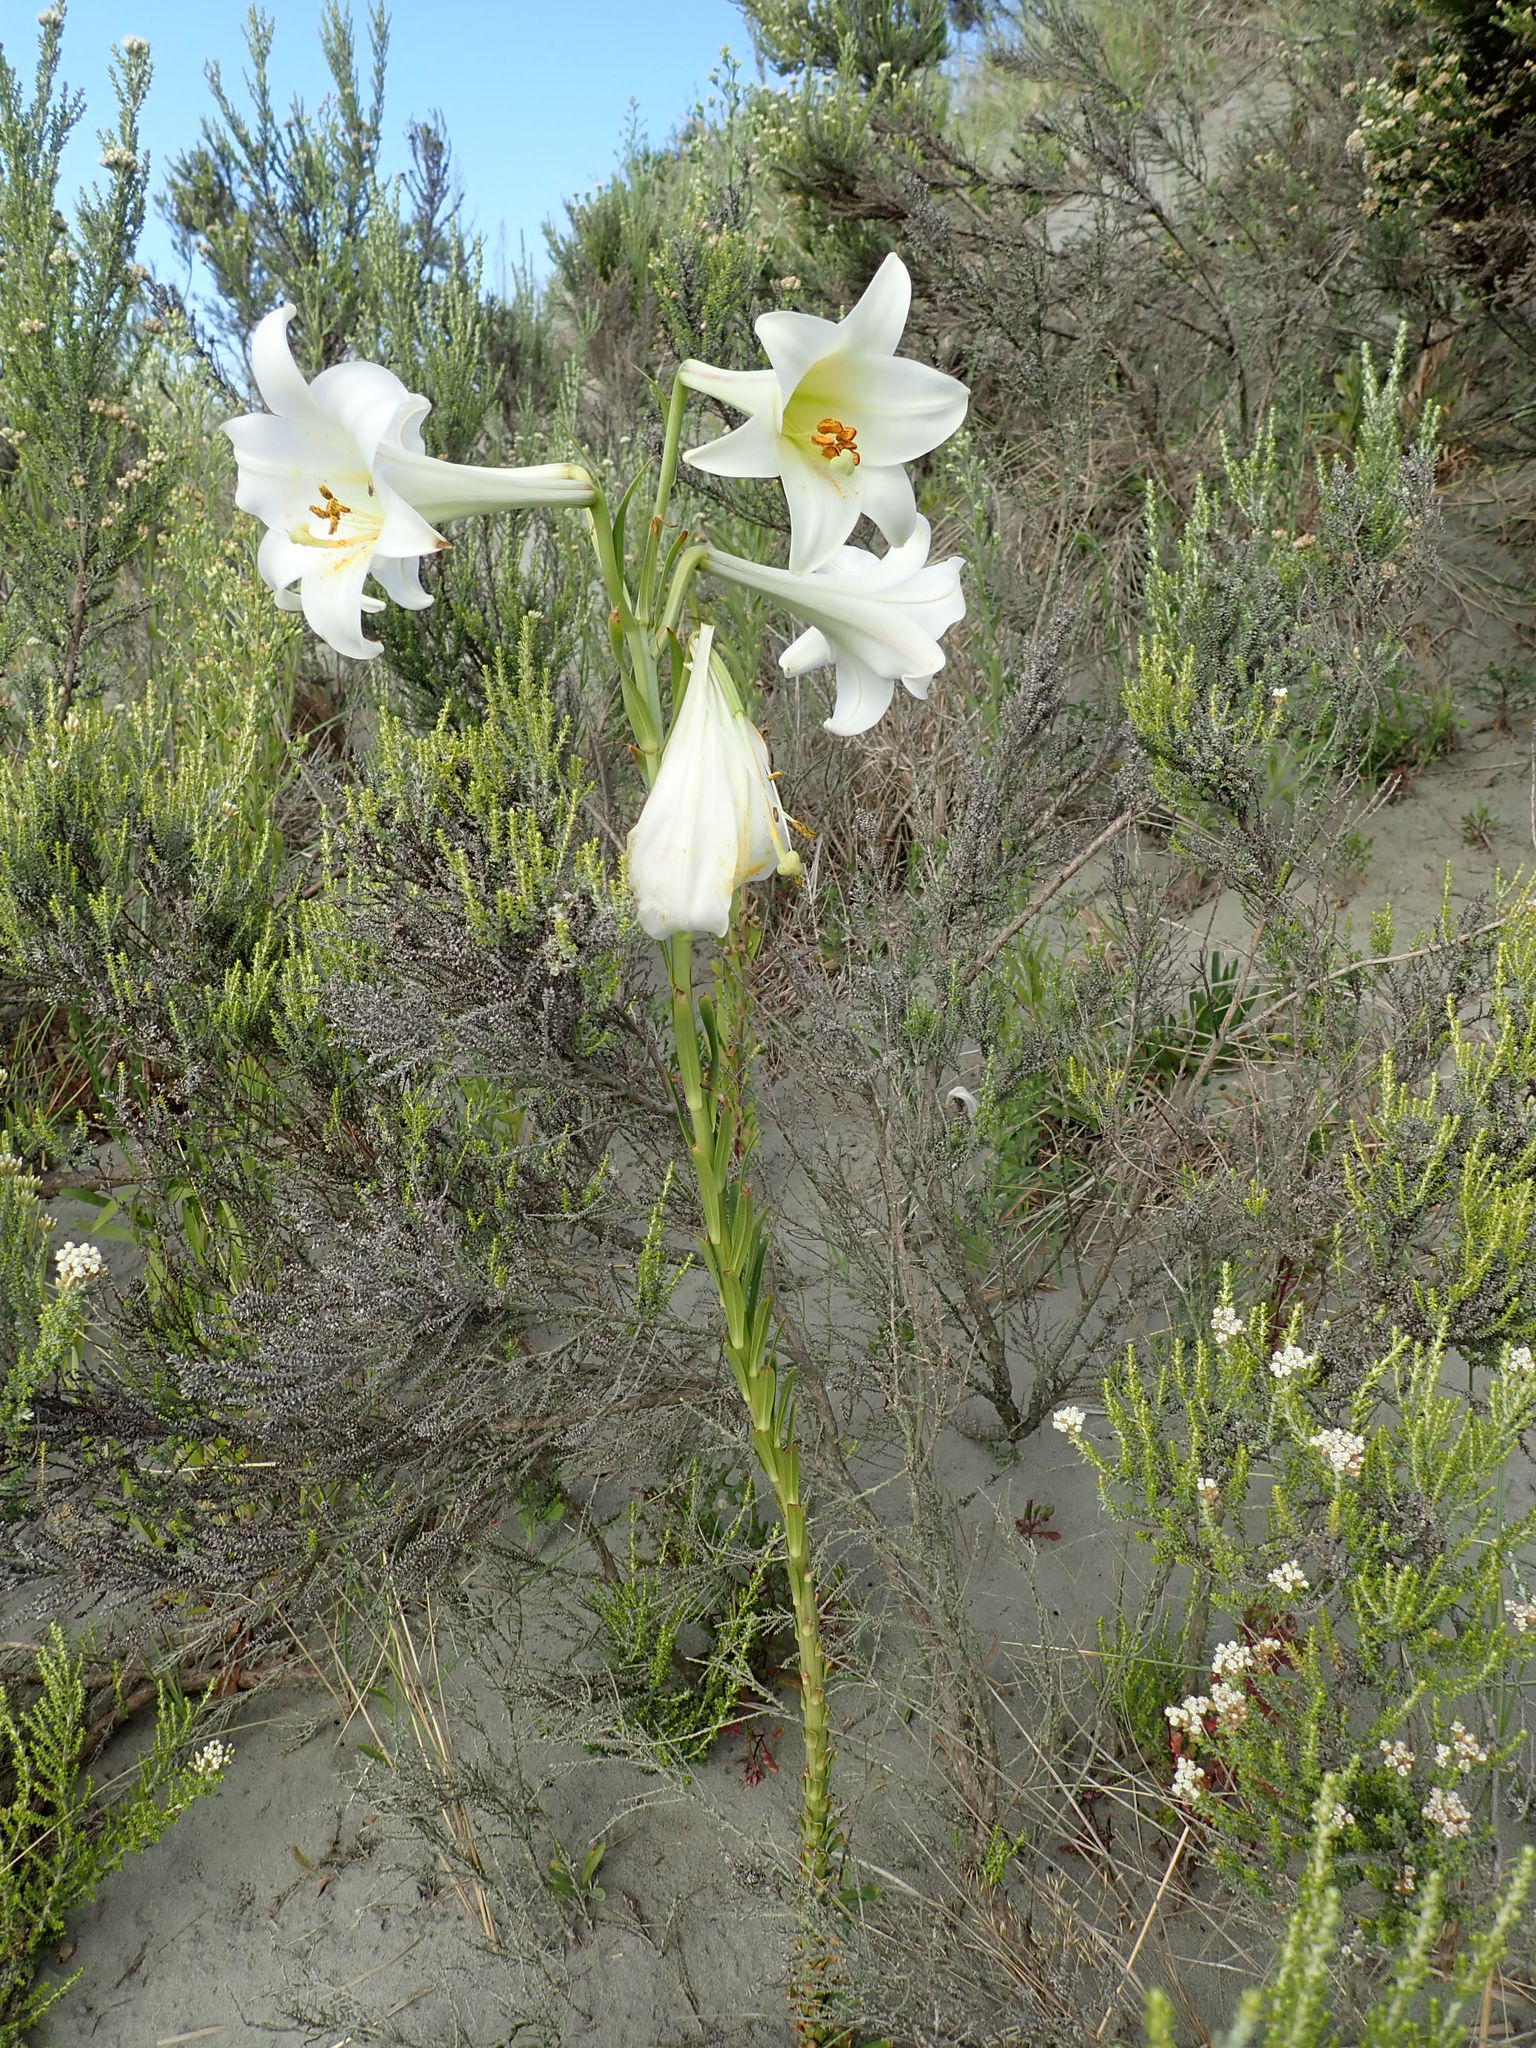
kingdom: Plantae
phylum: Tracheophyta
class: Liliopsida
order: Liliales
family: Liliaceae
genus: Lilium
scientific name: Lilium formosanum
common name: Formosa lily
